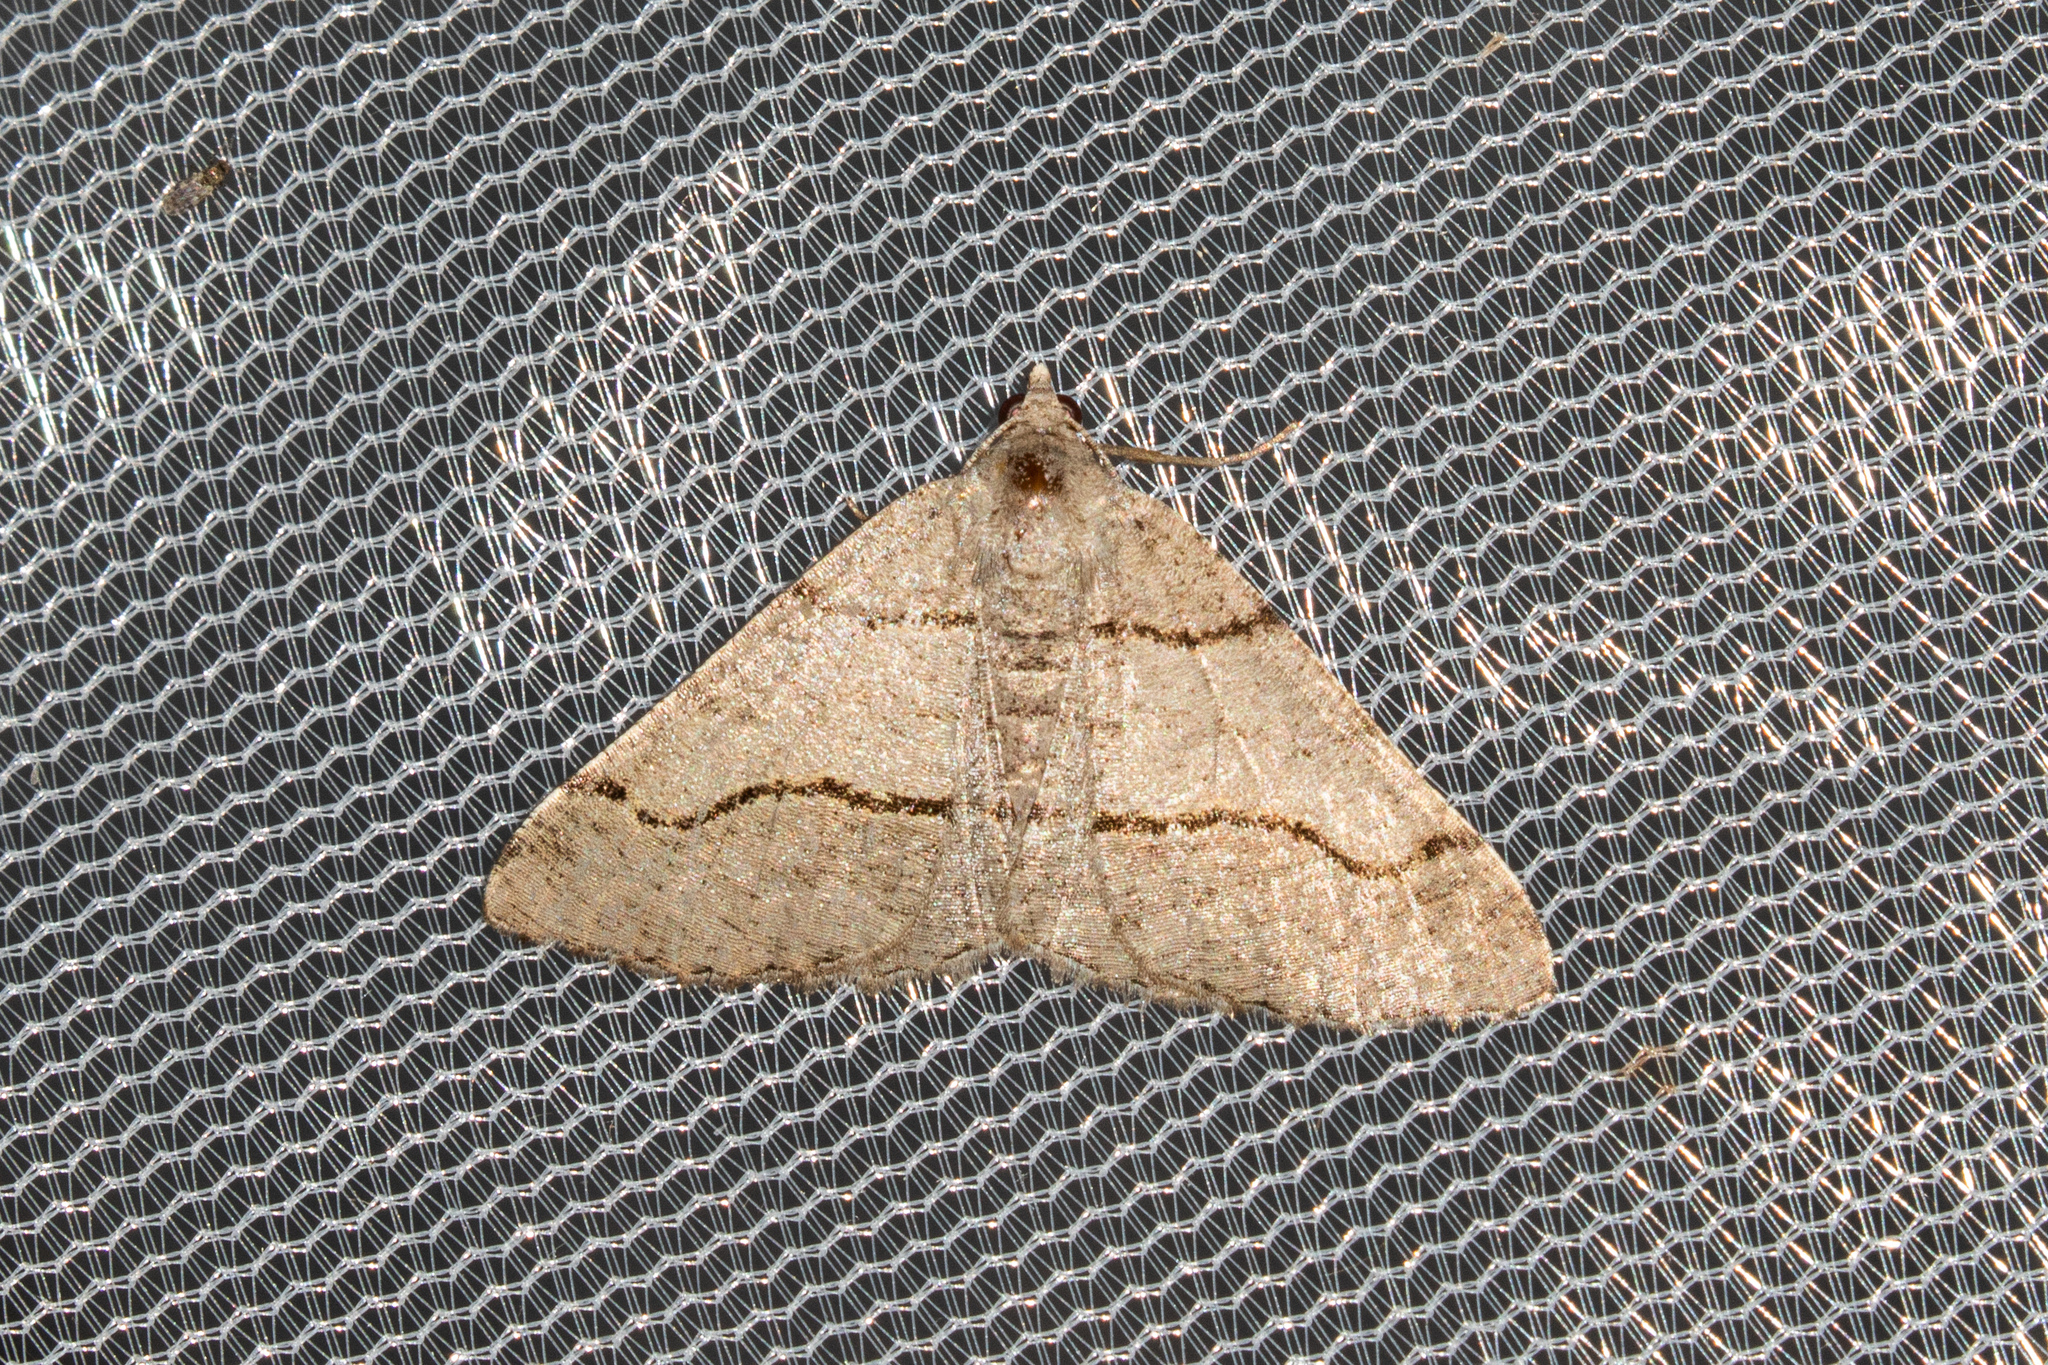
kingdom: Animalia
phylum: Arthropoda
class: Insecta
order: Lepidoptera
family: Geometridae
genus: Digrammia
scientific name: Digrammia continuata
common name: Curve-lined angle
